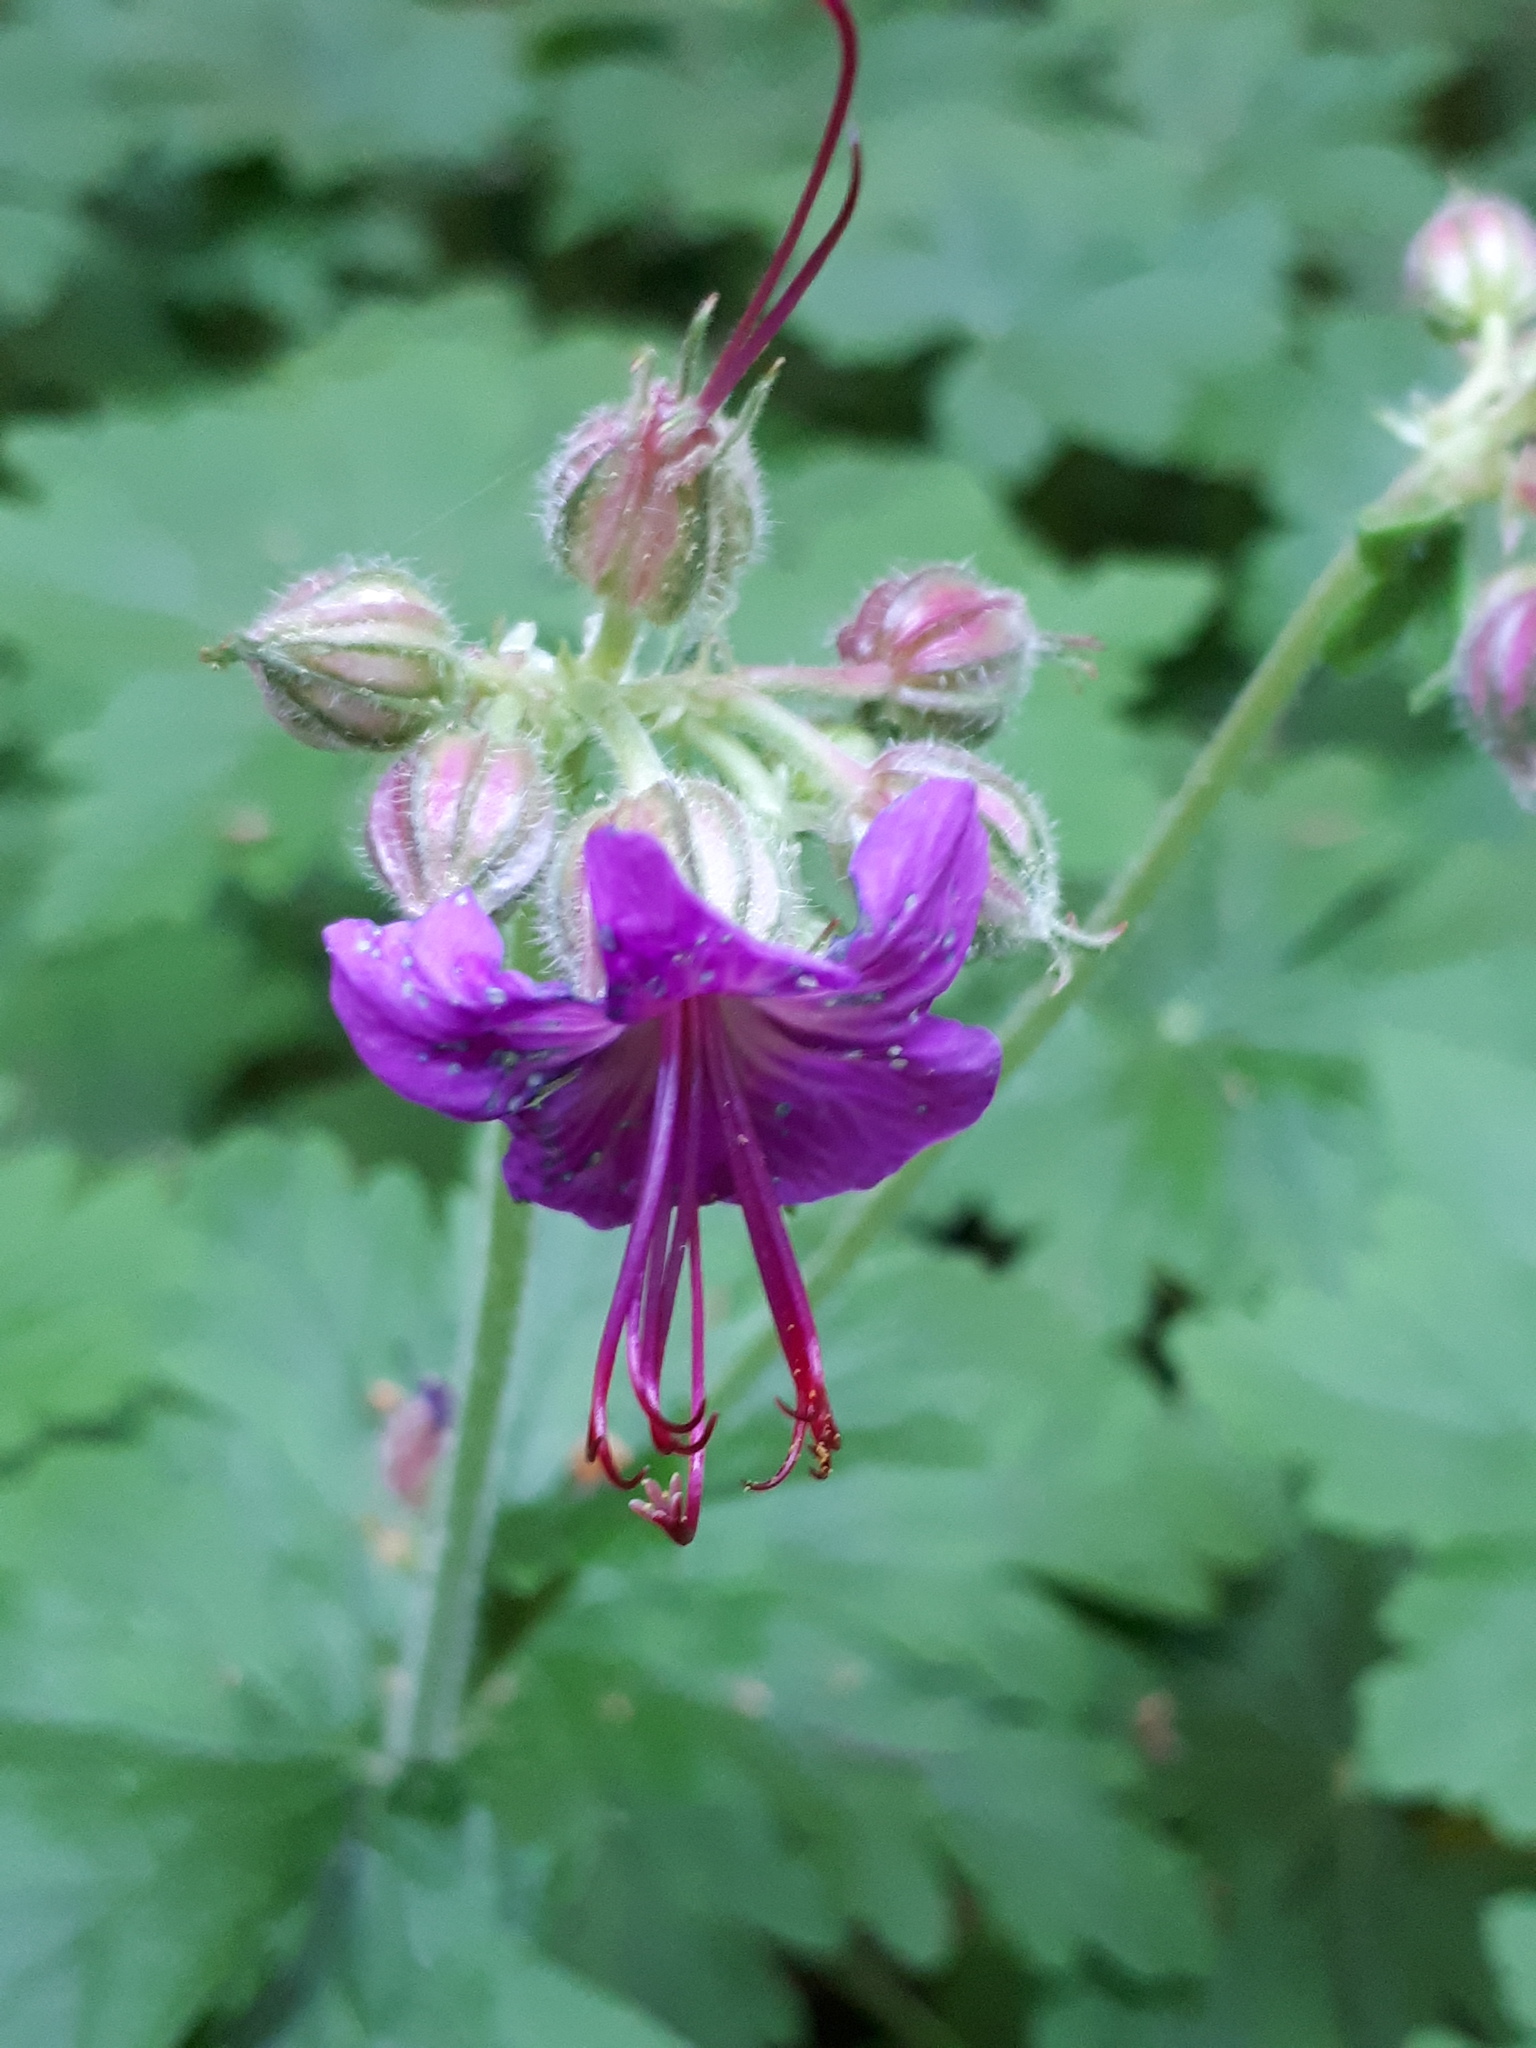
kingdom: Plantae
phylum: Tracheophyta
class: Magnoliopsida
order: Geraniales
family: Geraniaceae
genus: Geranium
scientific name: Geranium macrorrhizum
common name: Rock crane's-bill
